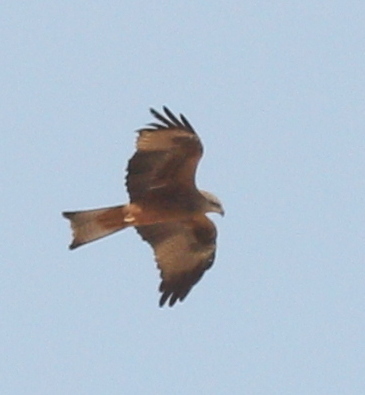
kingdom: Animalia
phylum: Chordata
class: Aves
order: Accipitriformes
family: Accipitridae
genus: Milvus
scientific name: Milvus migrans
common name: Black kite
